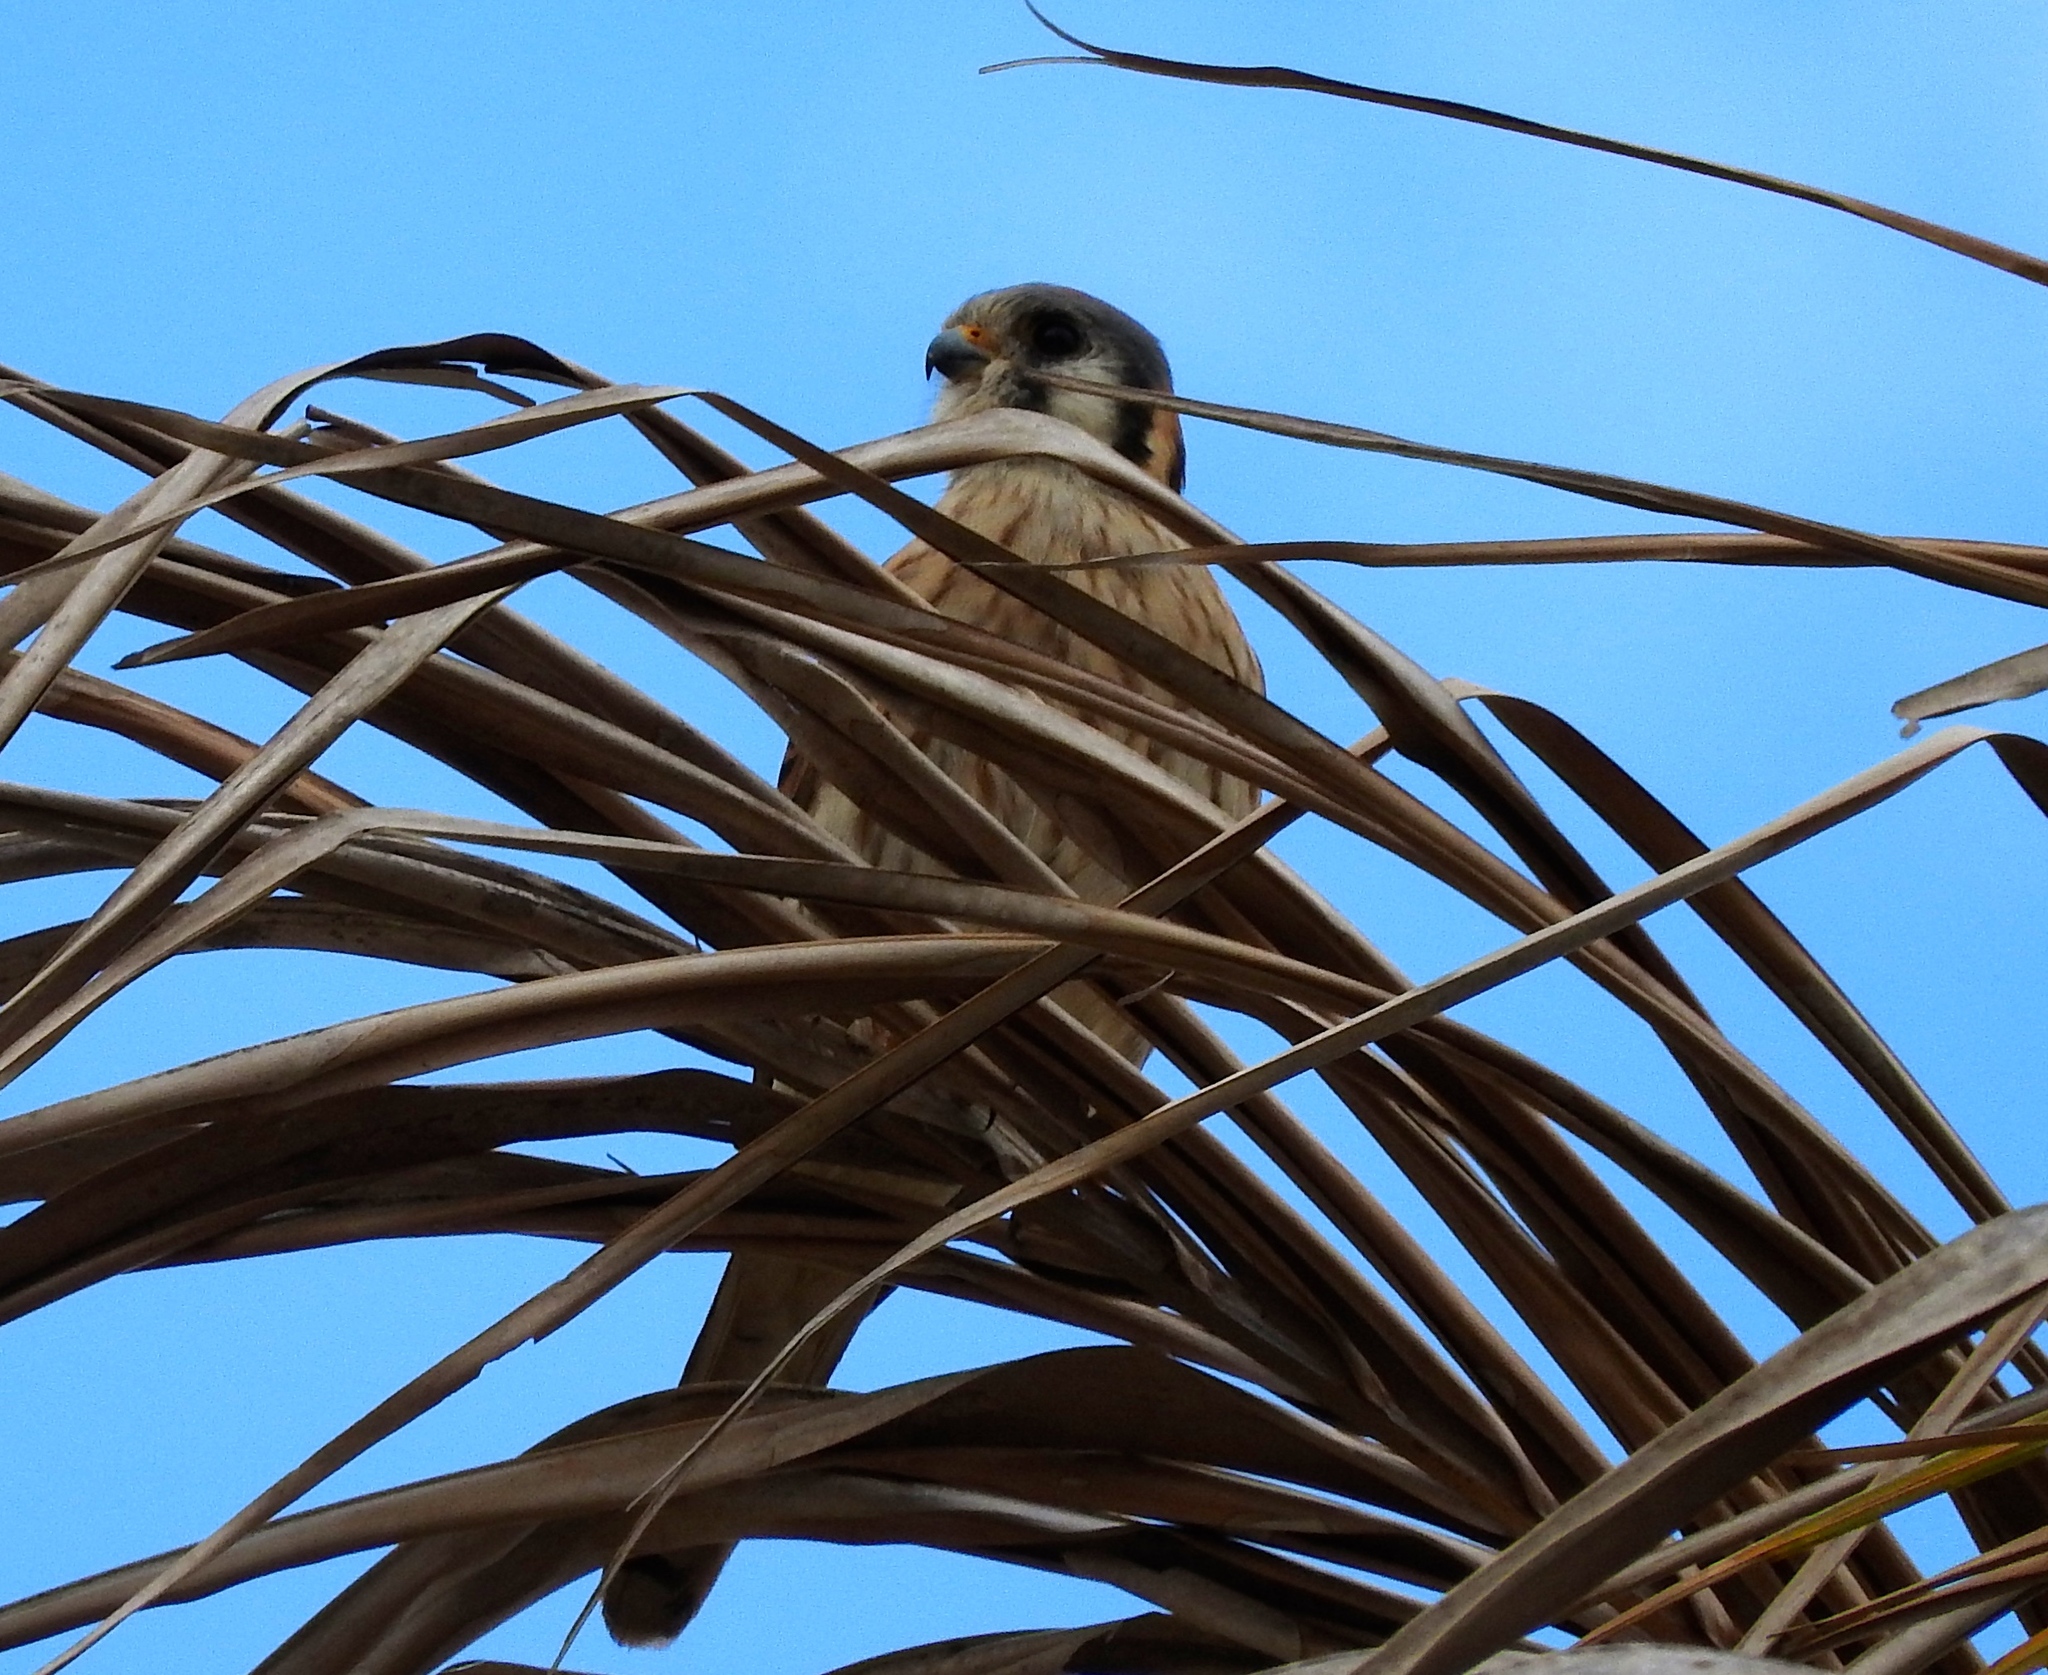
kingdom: Animalia
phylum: Chordata
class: Aves
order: Falconiformes
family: Falconidae
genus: Falco
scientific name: Falco sparverius
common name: American kestrel
